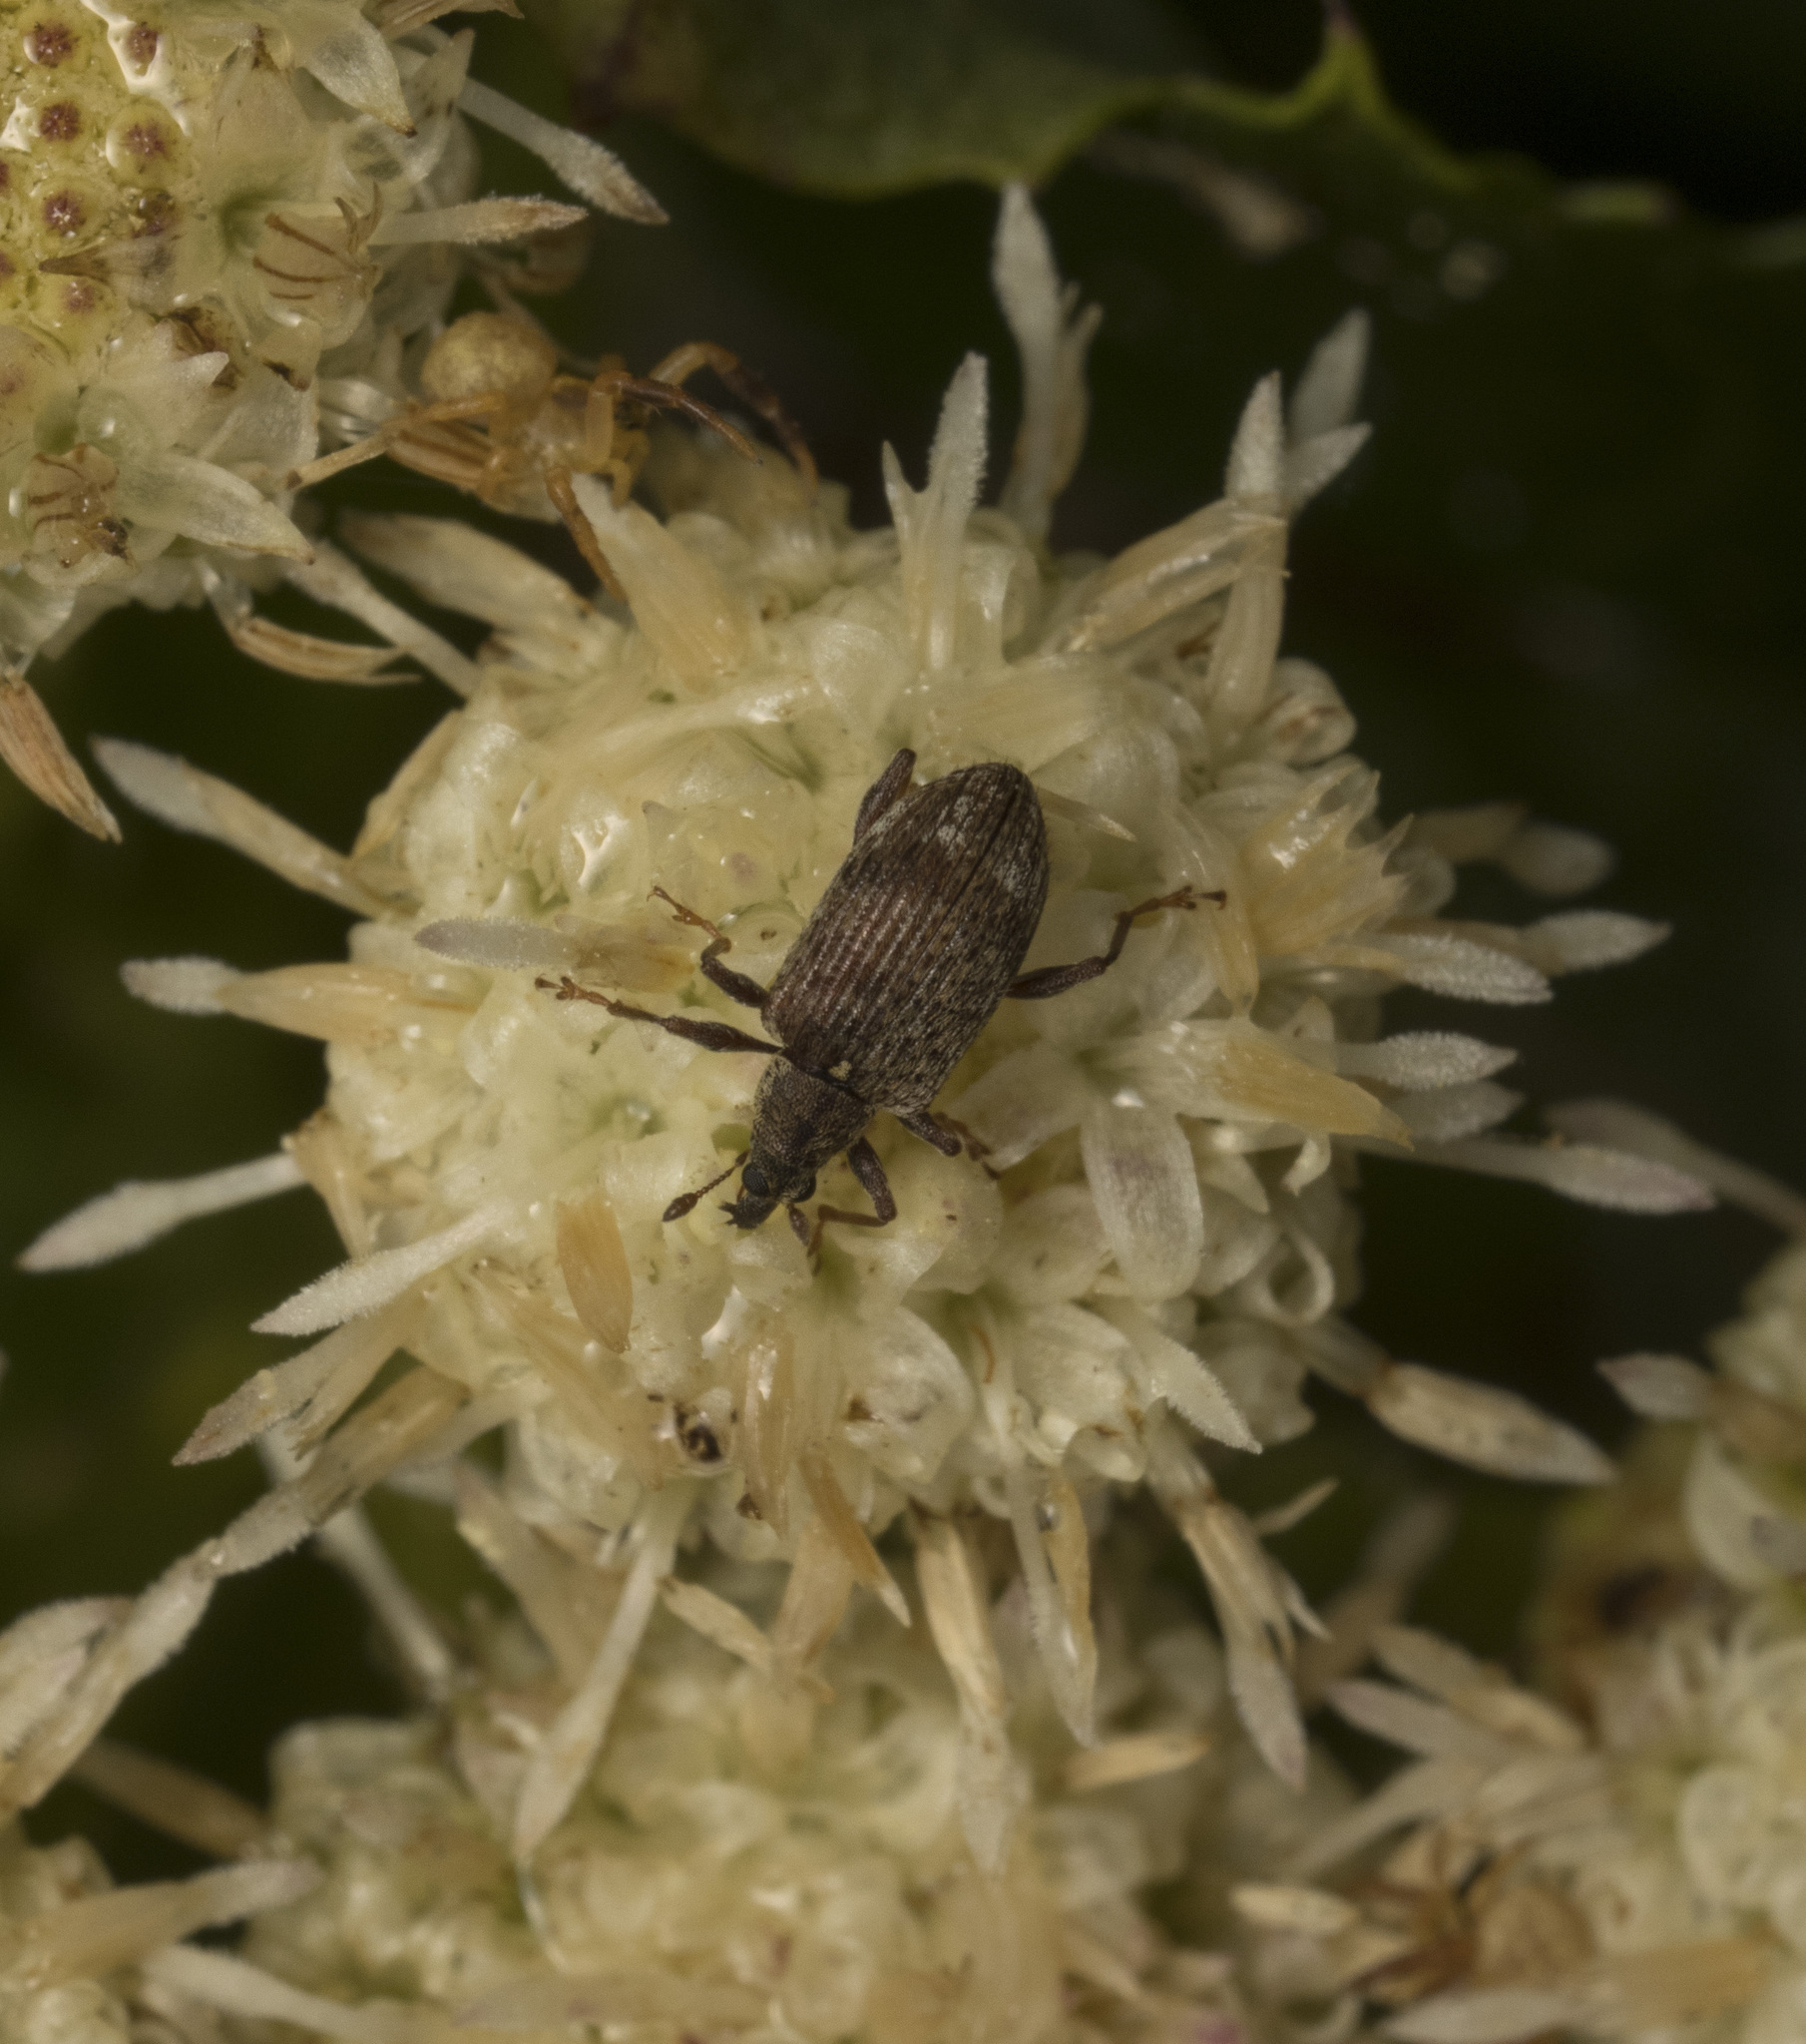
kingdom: Animalia
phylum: Arthropoda
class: Insecta
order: Coleoptera
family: Curculionidae
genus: Rhopalomerus
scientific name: Rhopalomerus tenuirostris
